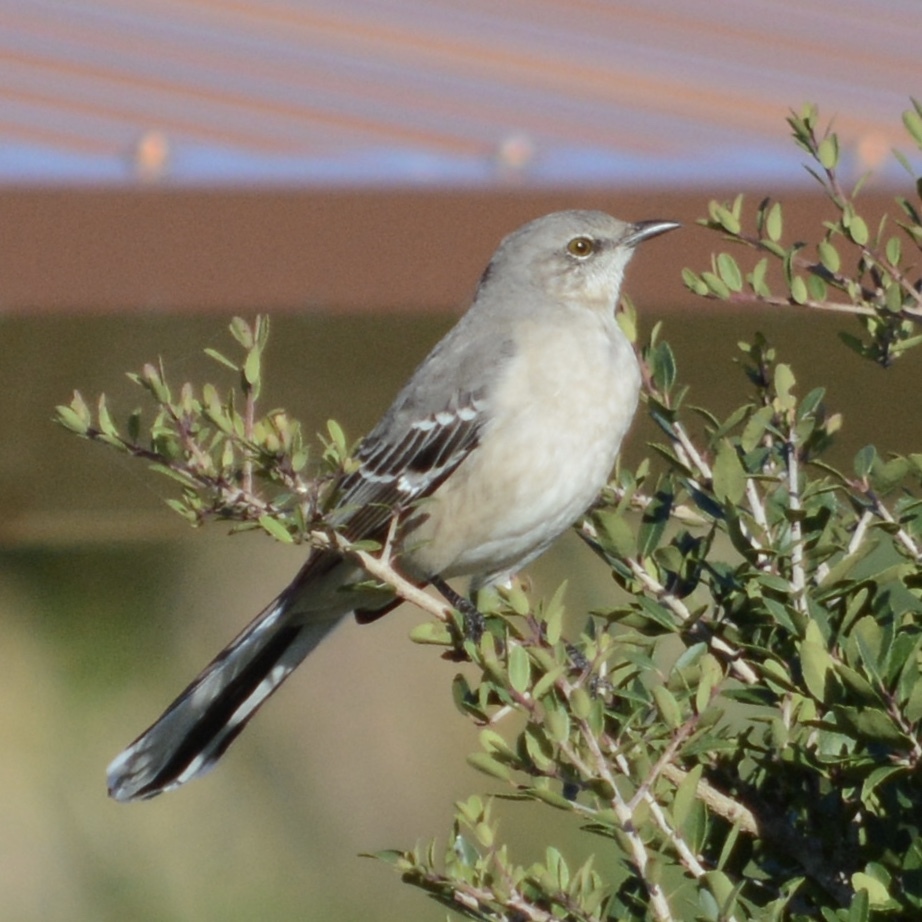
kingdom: Animalia
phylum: Chordata
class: Aves
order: Passeriformes
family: Mimidae
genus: Mimus
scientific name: Mimus polyglottos
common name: Northern mockingbird
